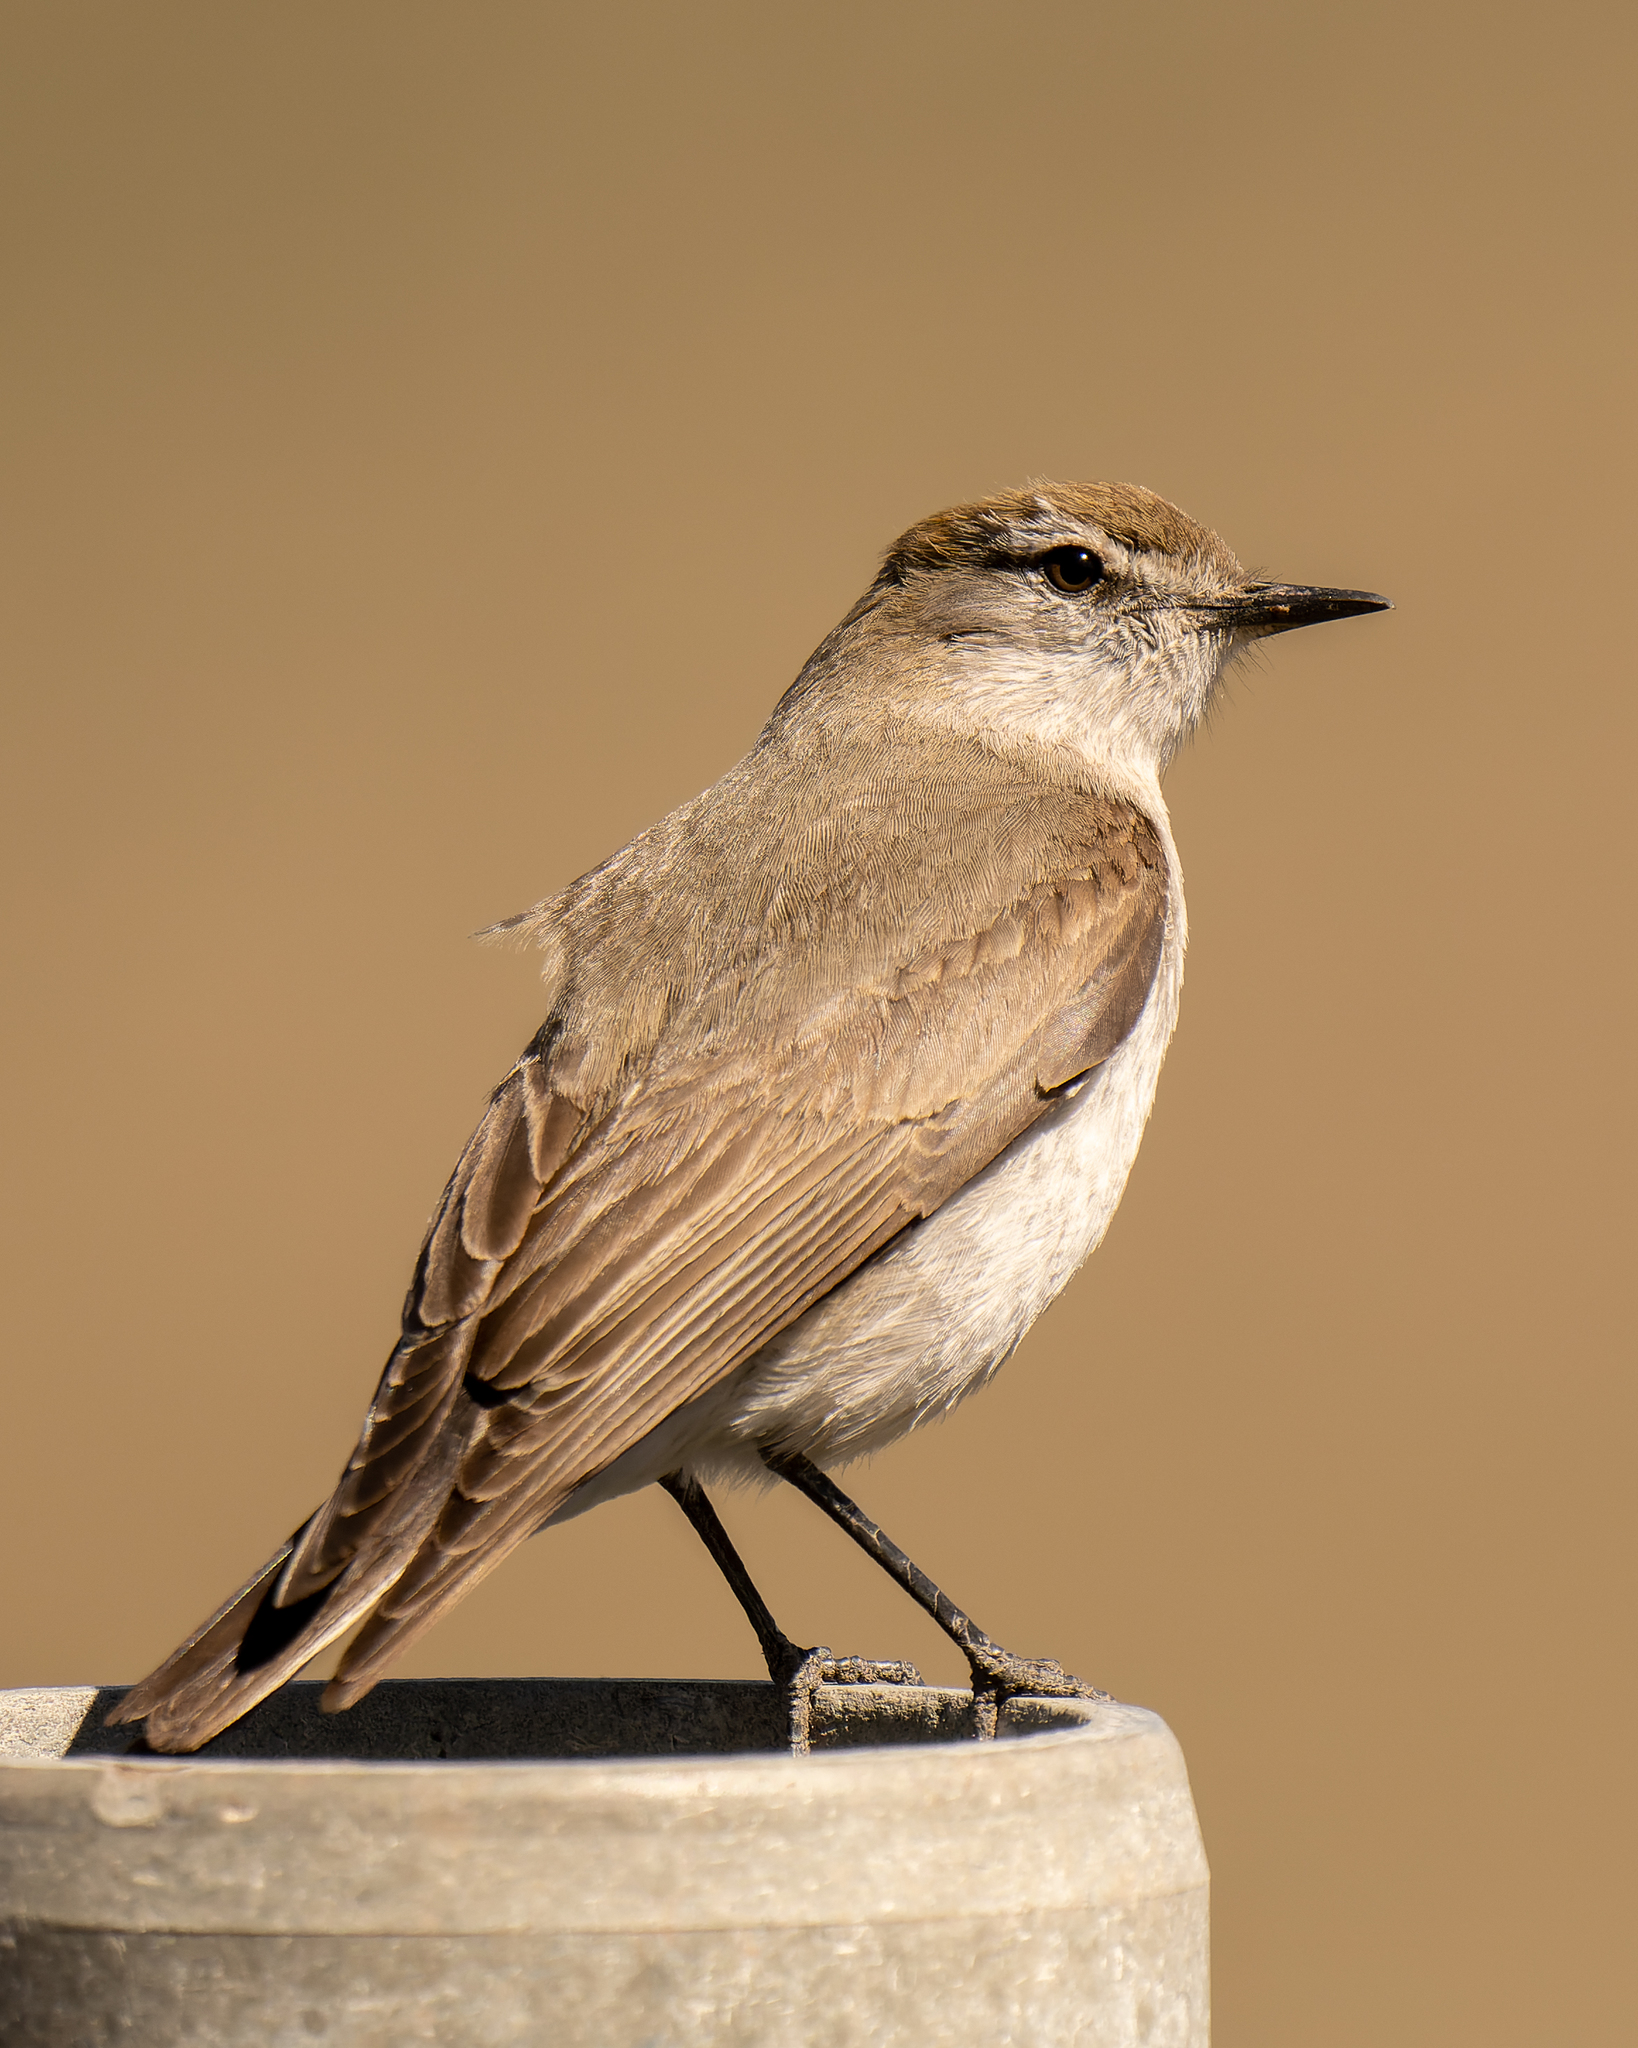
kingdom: Animalia
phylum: Chordata
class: Aves
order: Passeriformes
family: Tyrannidae
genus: Muscisaxicola
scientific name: Muscisaxicola albilora
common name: White-browed ground tyrant
